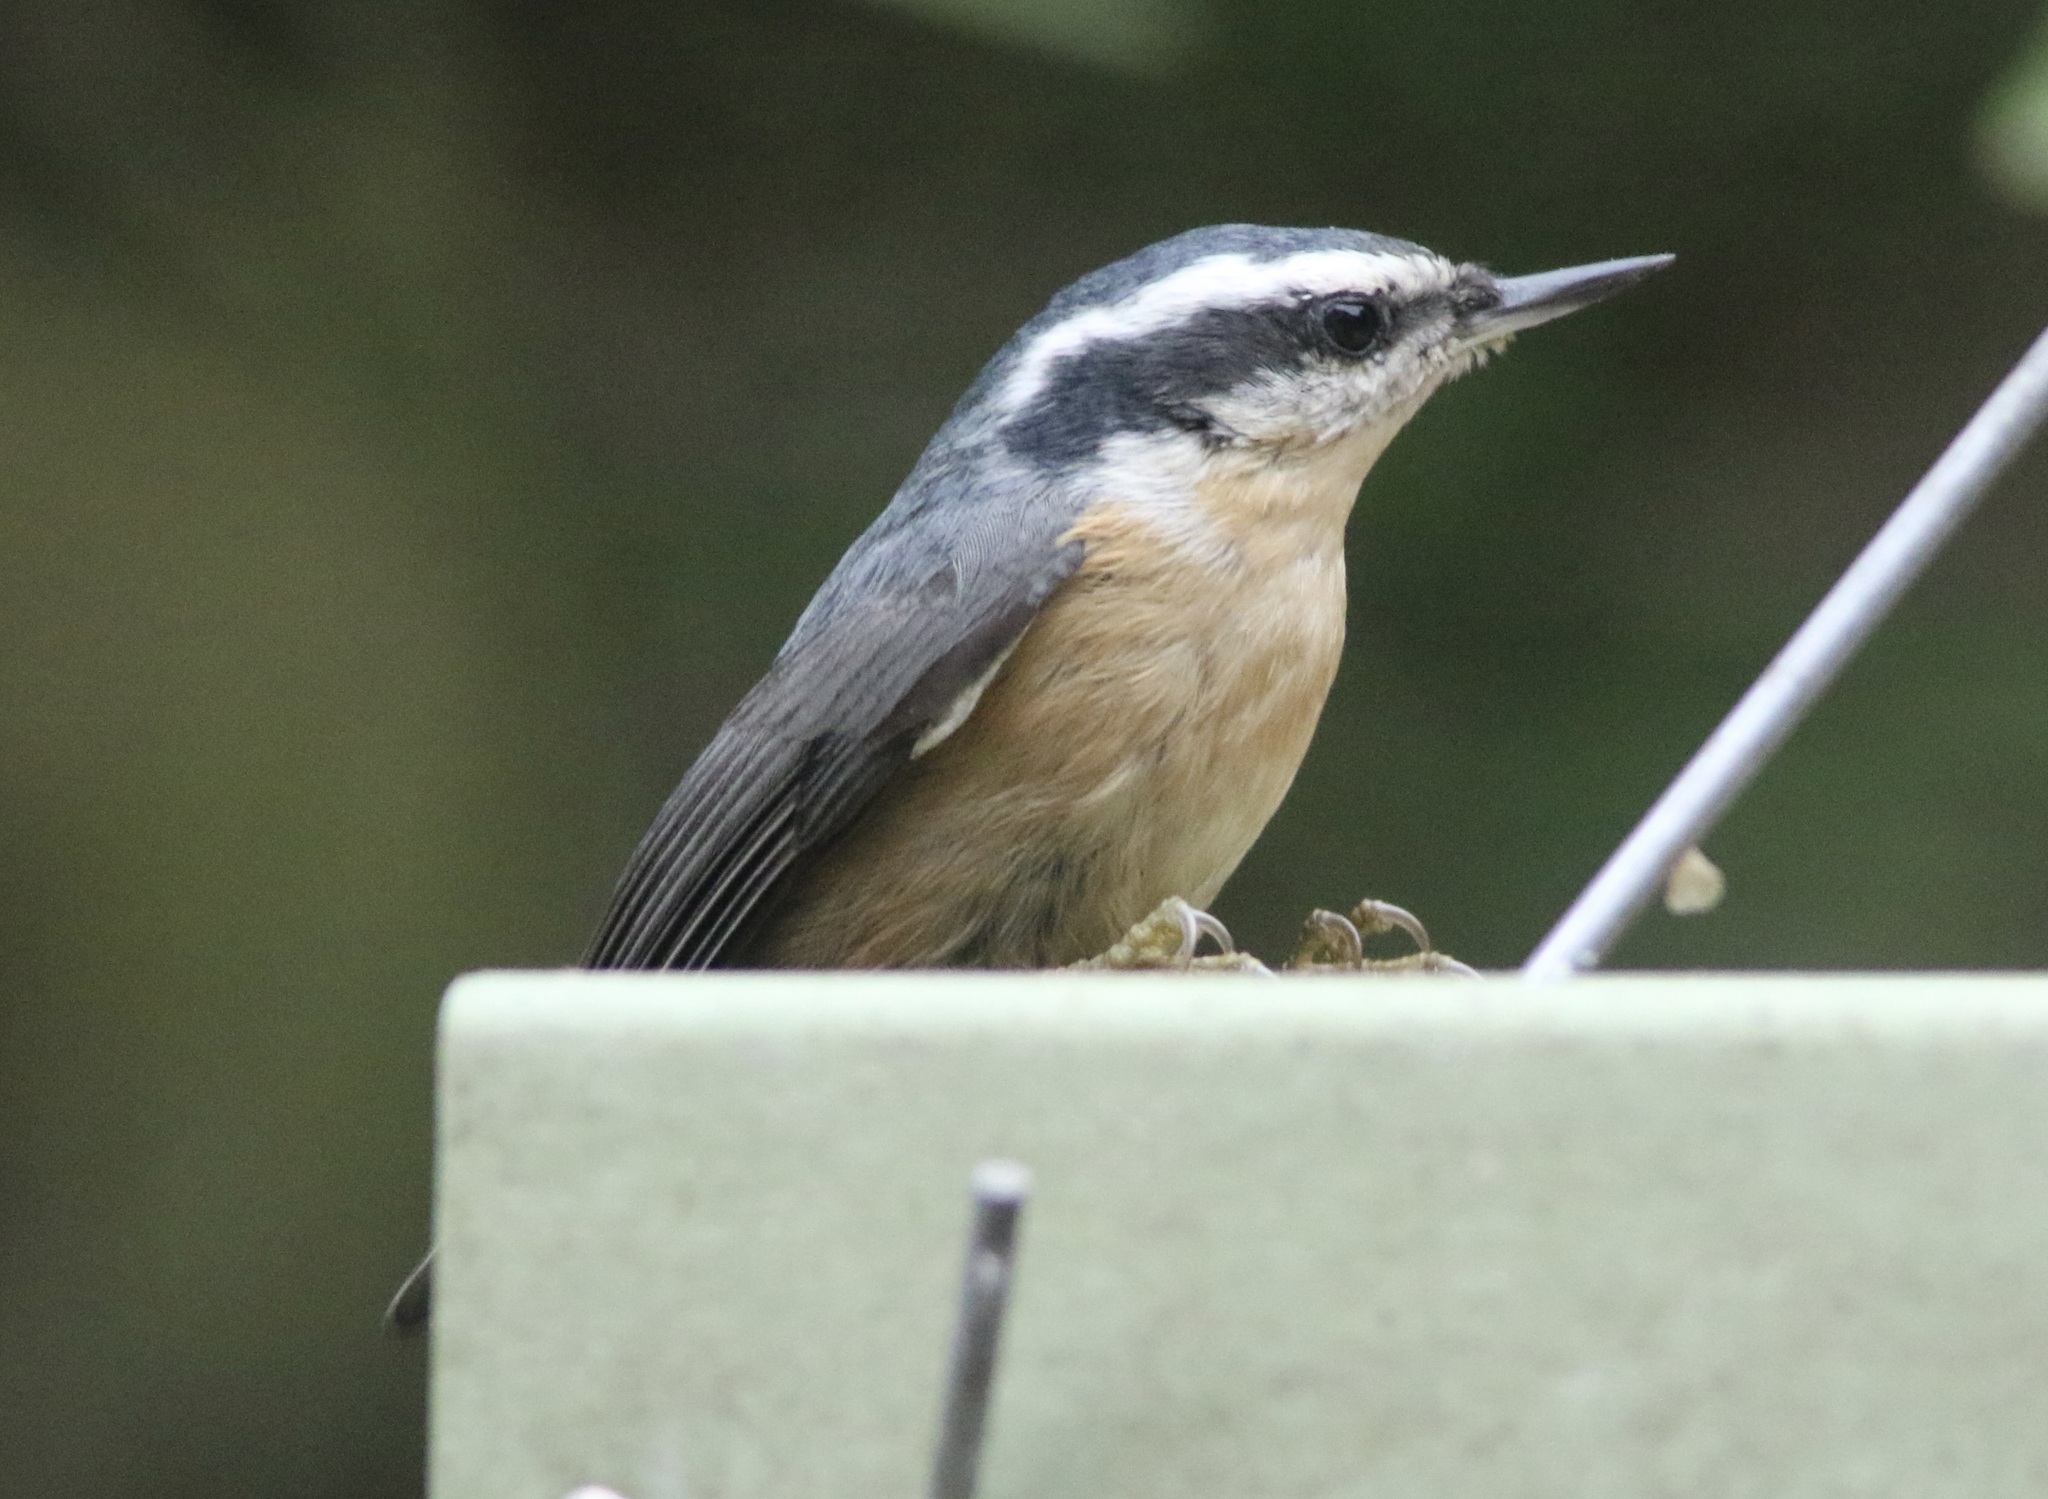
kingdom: Animalia
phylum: Chordata
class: Aves
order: Passeriformes
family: Sittidae
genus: Sitta
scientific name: Sitta canadensis
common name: Red-breasted nuthatch
